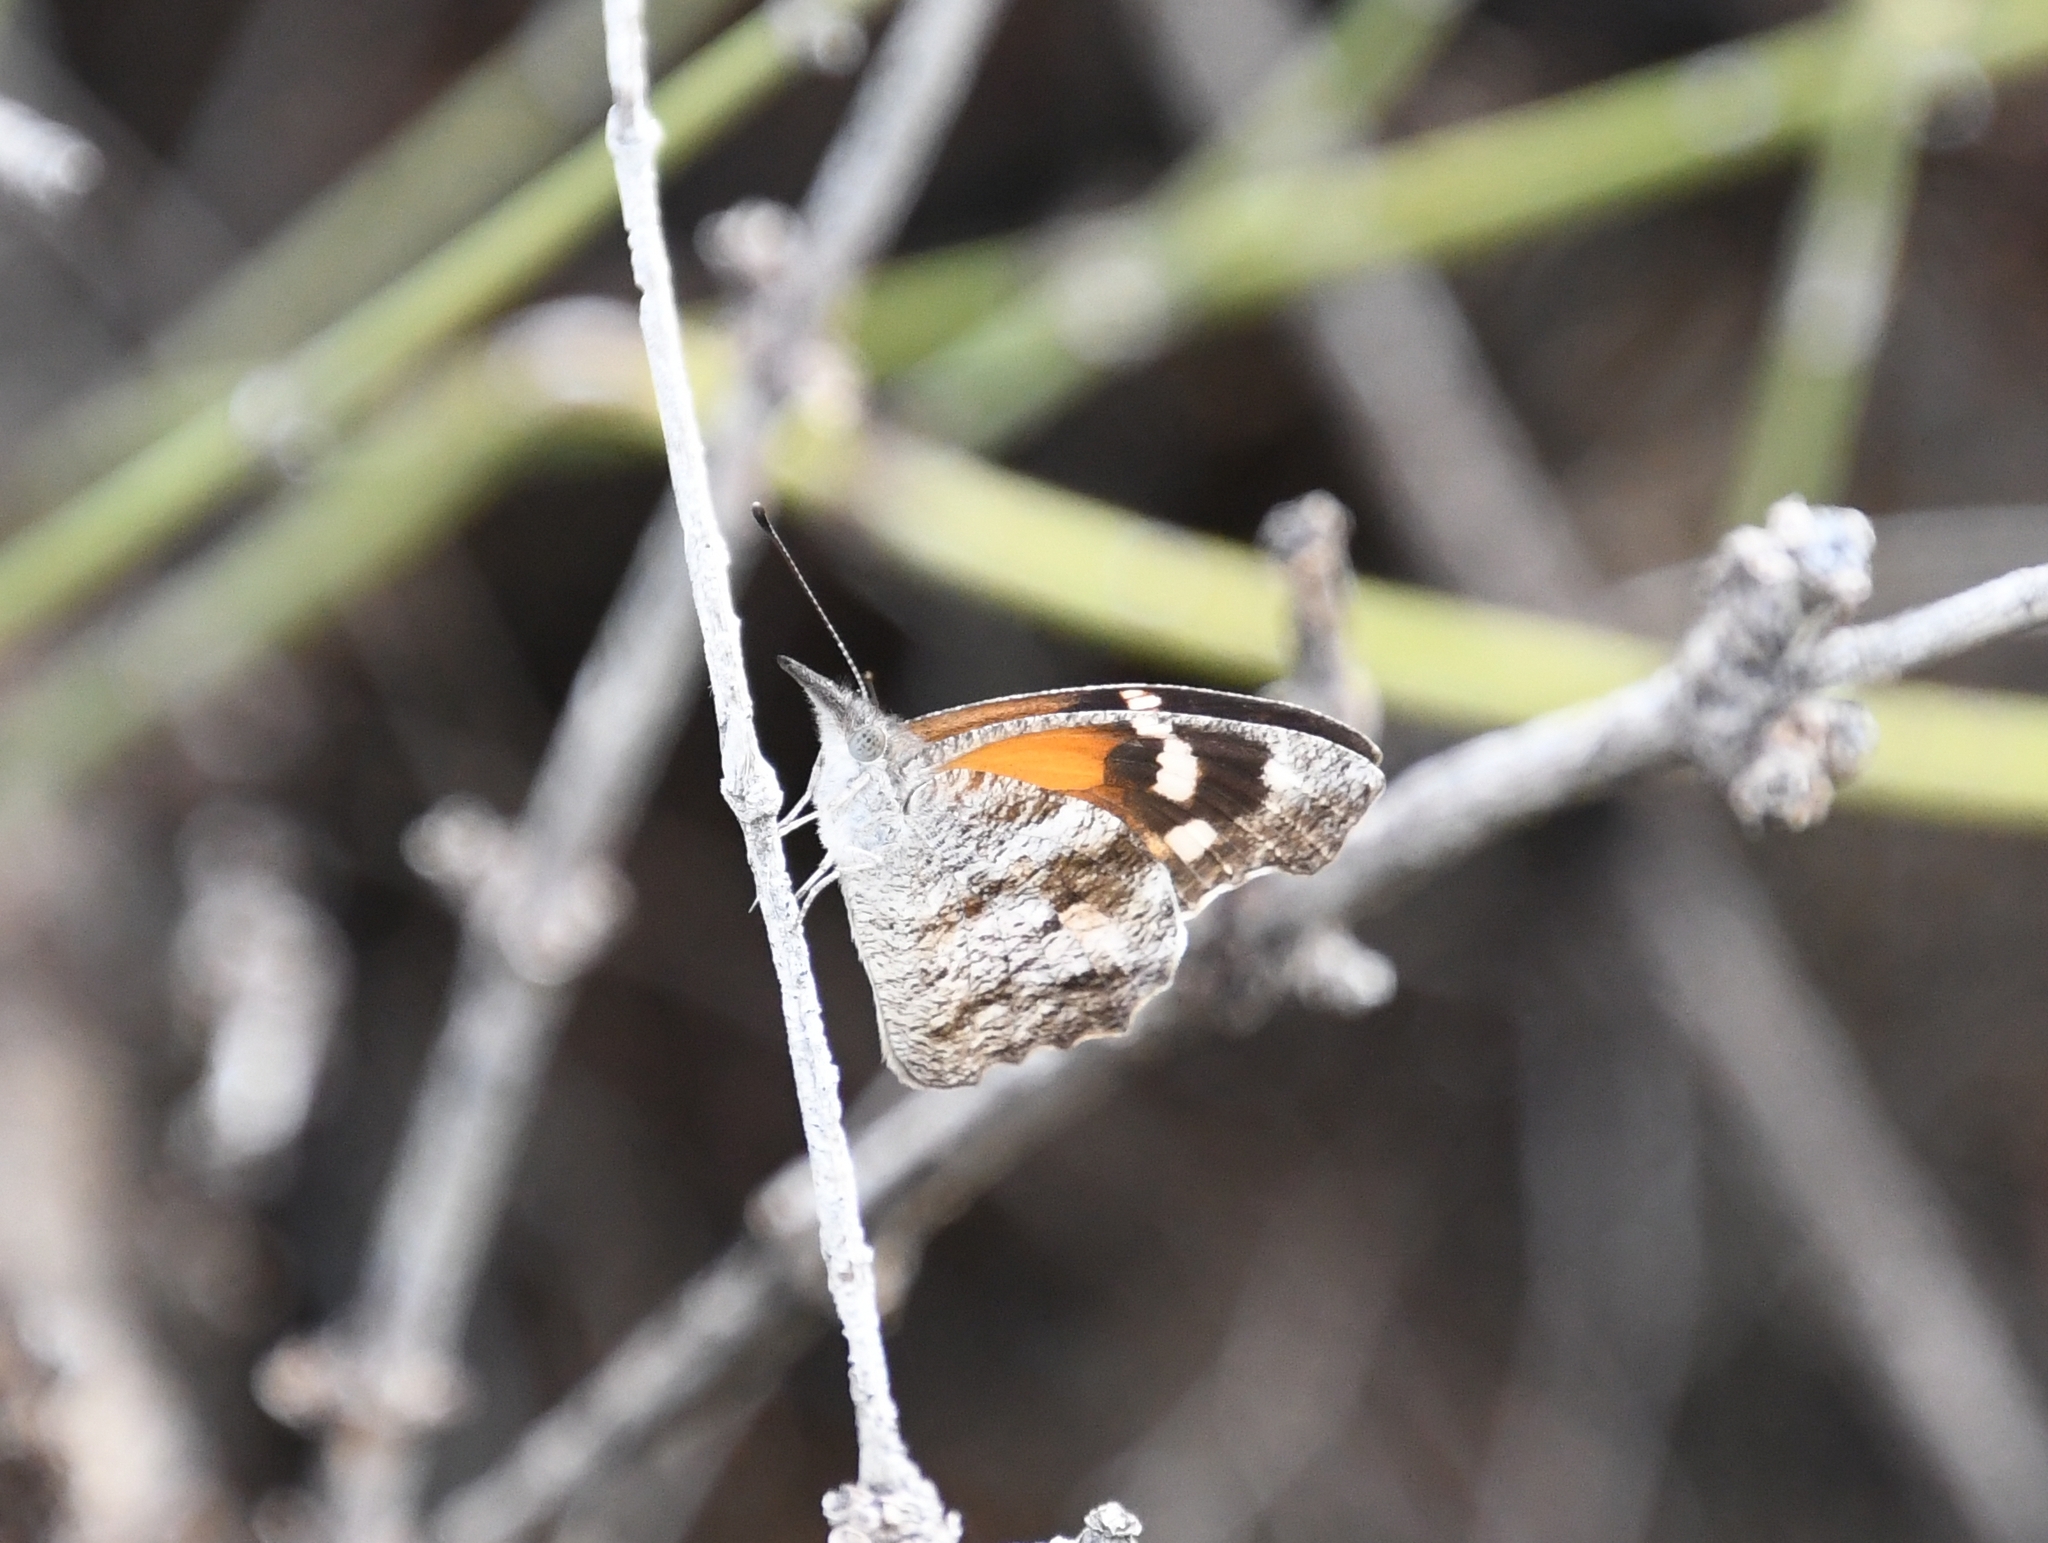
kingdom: Animalia
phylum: Arthropoda
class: Insecta
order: Lepidoptera
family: Nymphalidae
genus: Libytheana
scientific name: Libytheana carinenta
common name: American snout
